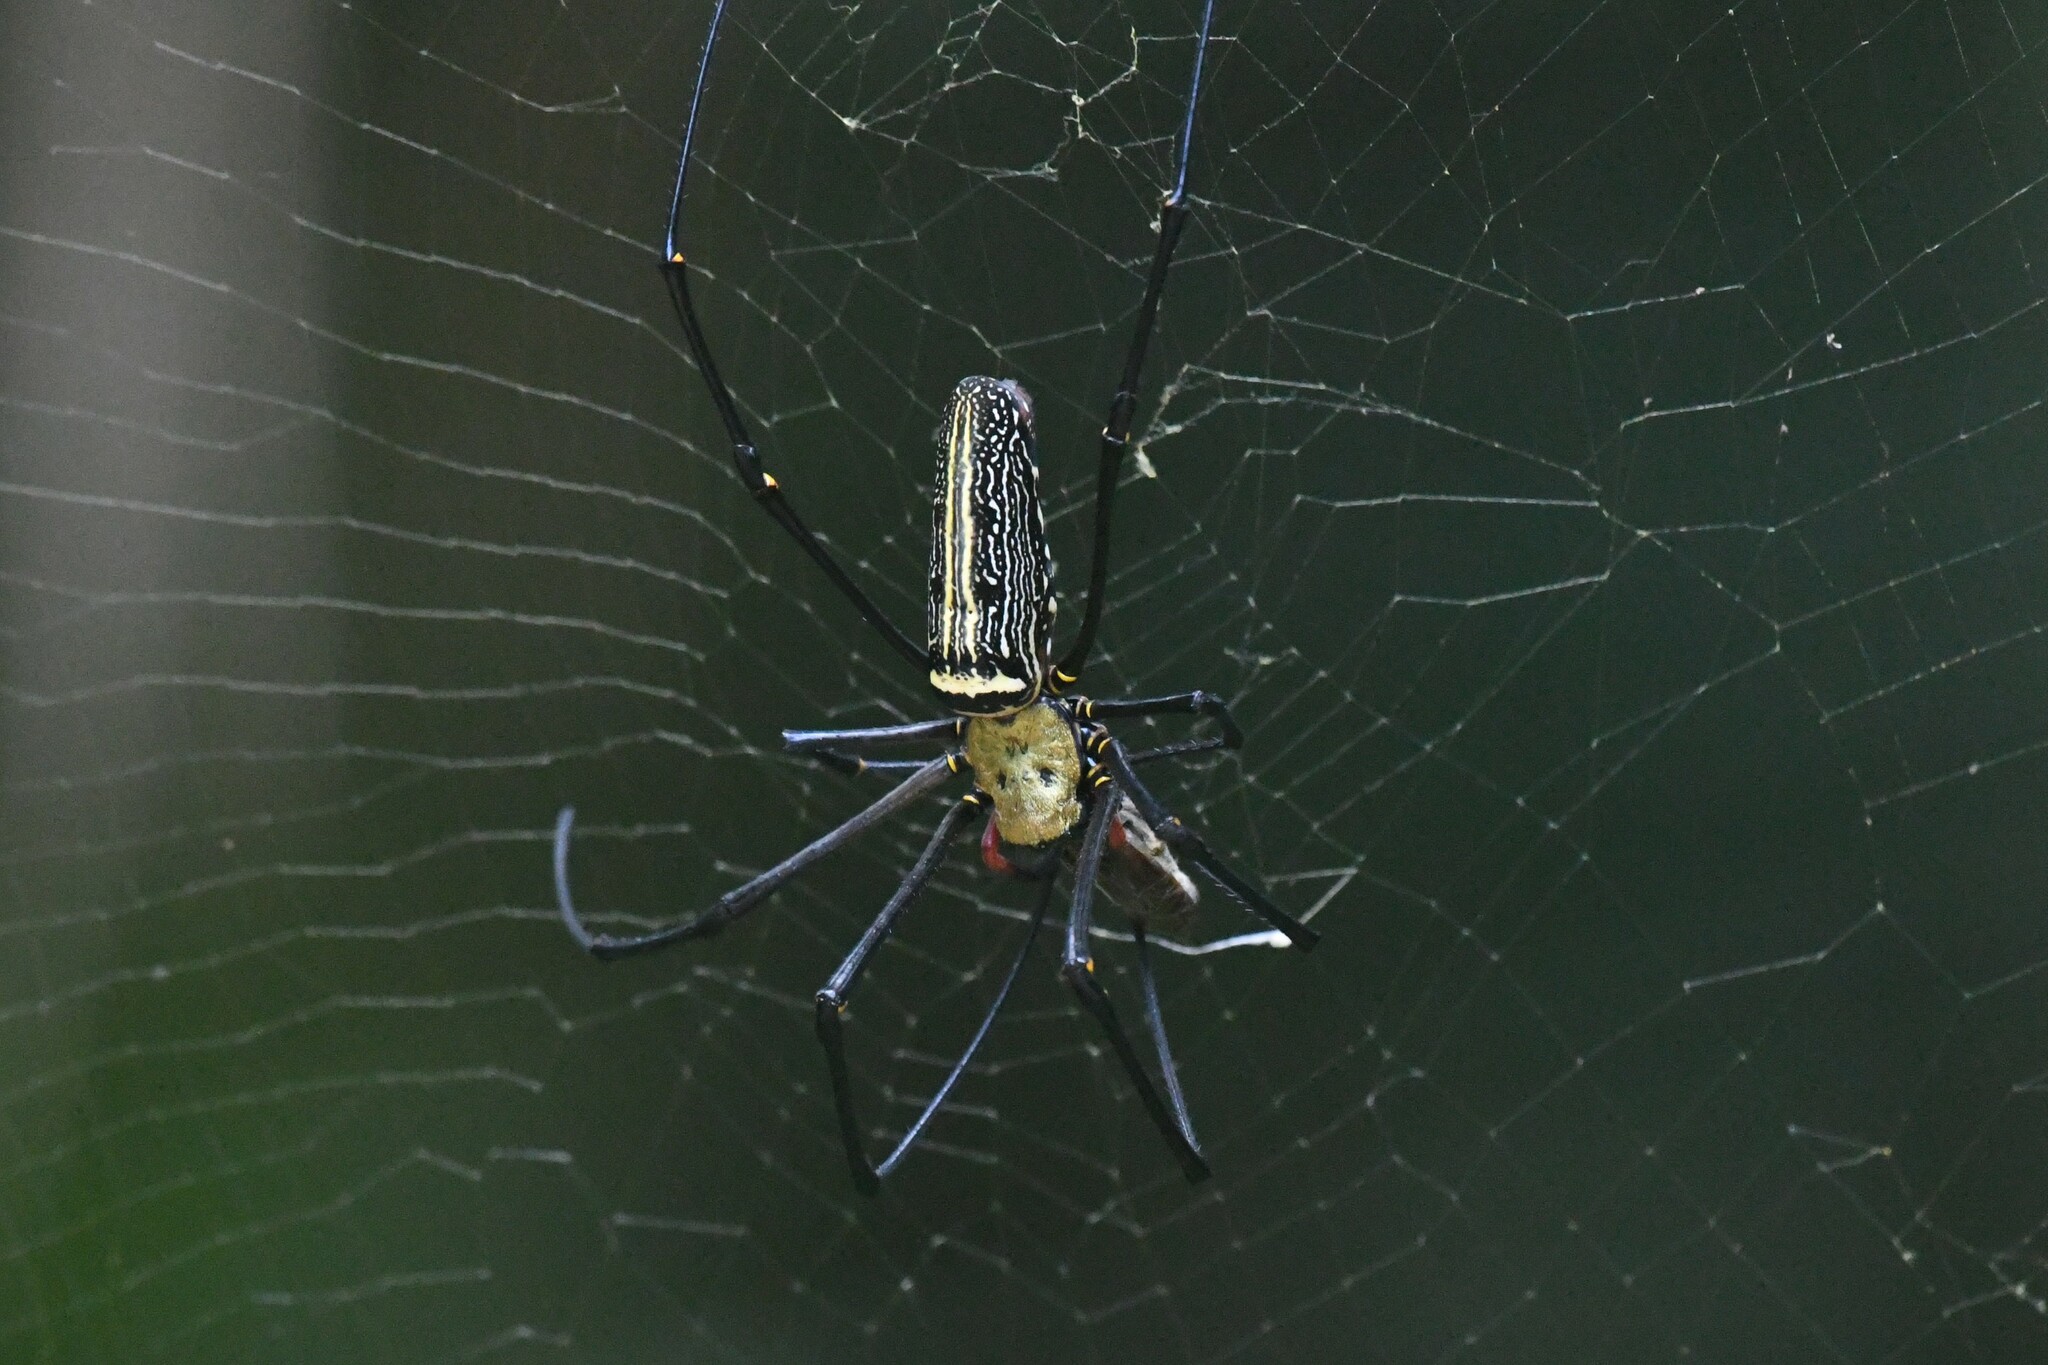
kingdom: Animalia
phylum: Arthropoda
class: Arachnida
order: Araneae
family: Araneidae
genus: Nephila
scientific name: Nephila pilipes
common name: Giant golden orb weaver
